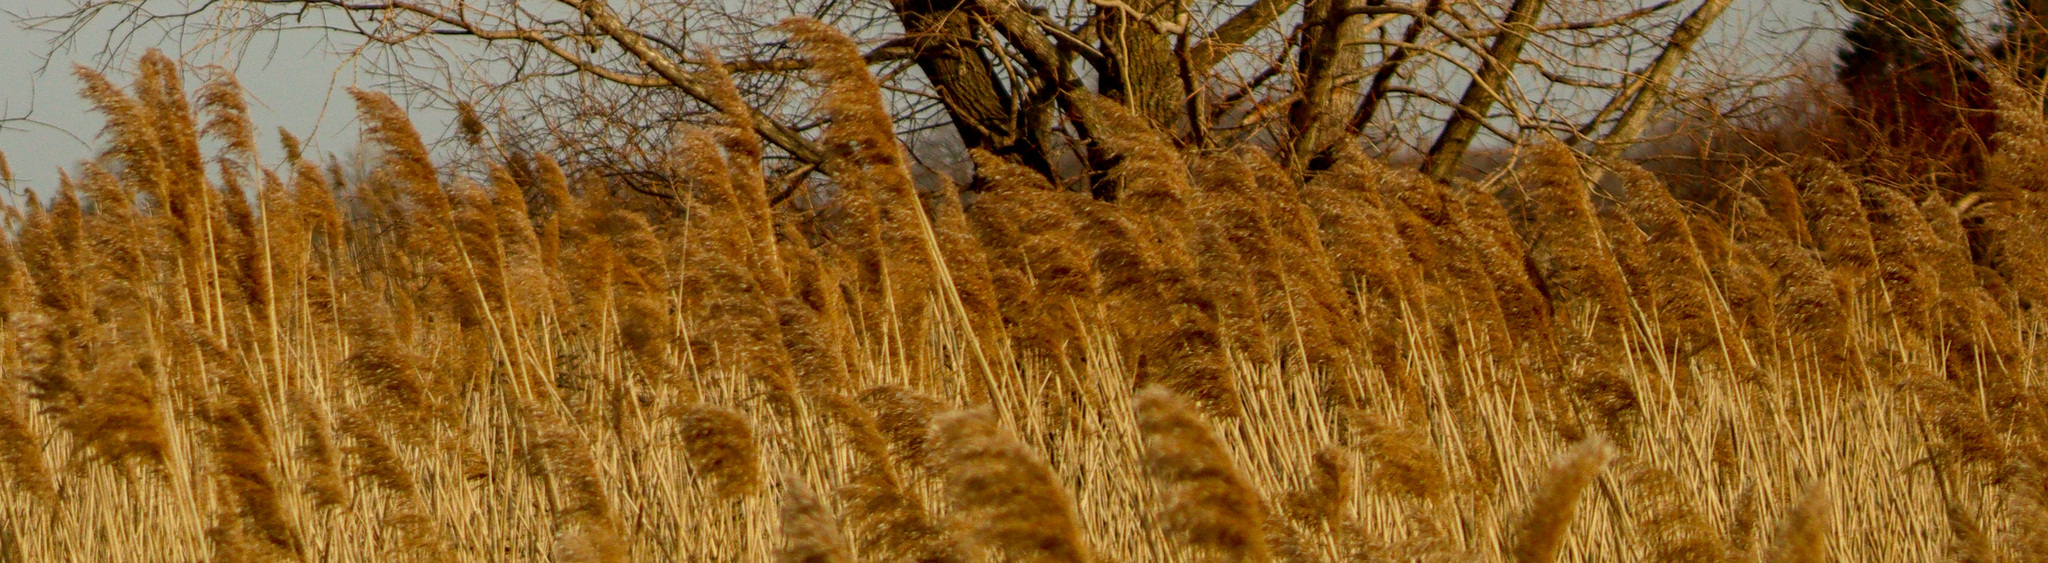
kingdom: Plantae
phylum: Tracheophyta
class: Liliopsida
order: Poales
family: Poaceae
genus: Phragmites
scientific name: Phragmites australis
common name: Common reed
